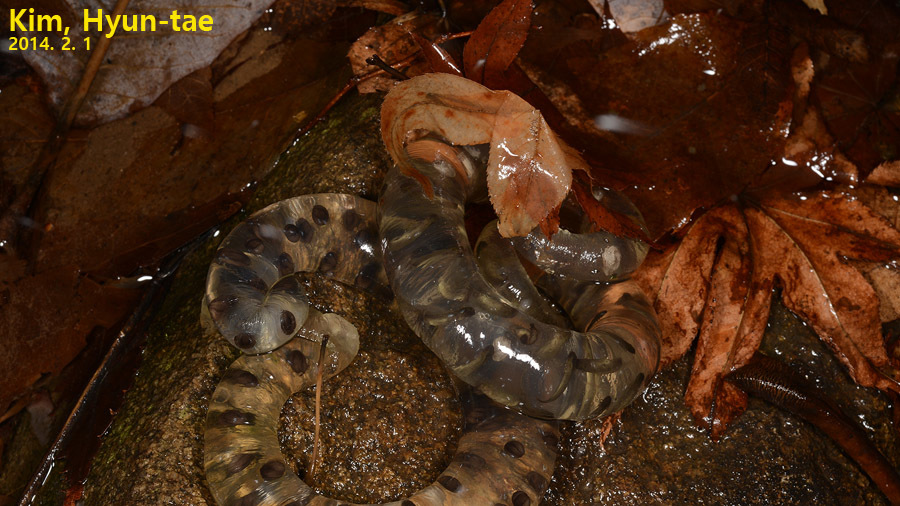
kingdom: Animalia
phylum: Chordata
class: Amphibia
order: Caudata
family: Hynobiidae
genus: Hynobius
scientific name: Hynobius leechii
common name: Gensan salamander
